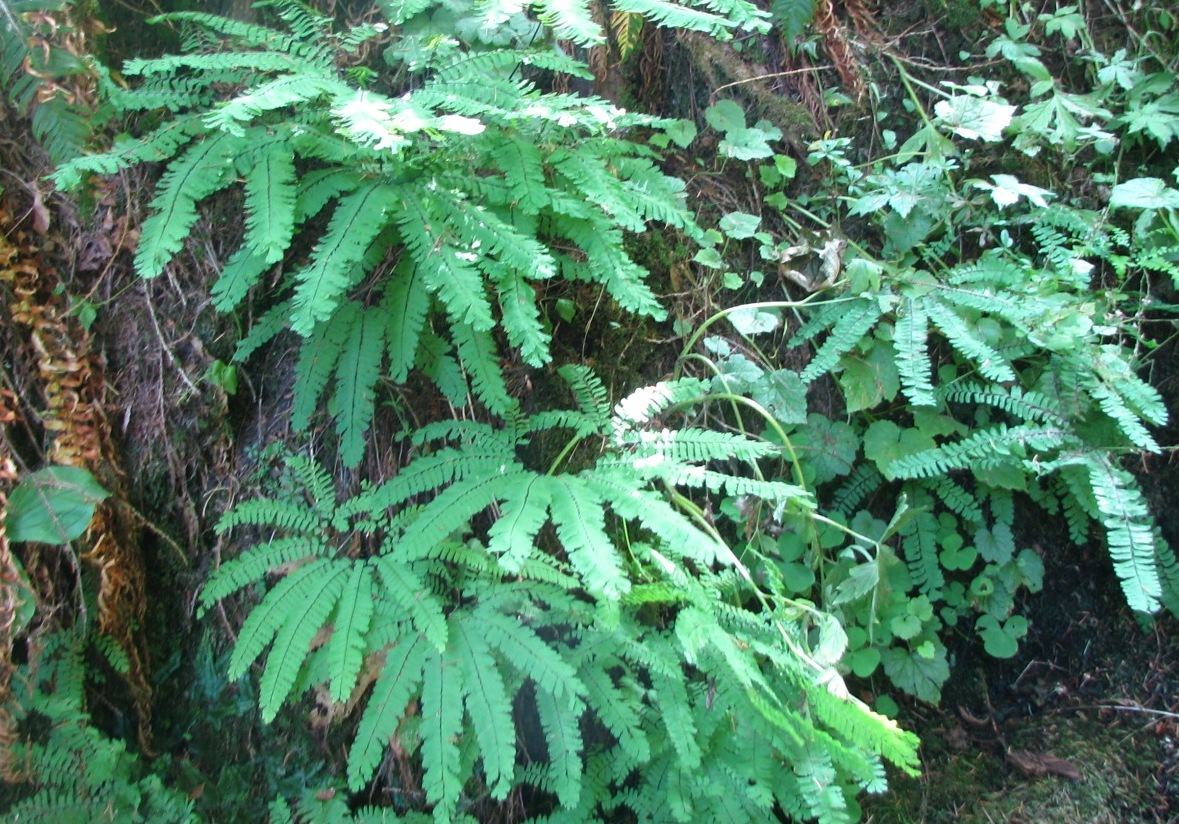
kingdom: Plantae
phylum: Tracheophyta
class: Polypodiopsida
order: Polypodiales
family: Pteridaceae
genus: Adiantum
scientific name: Adiantum aleuticum
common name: Aleutian maidenhair fern
